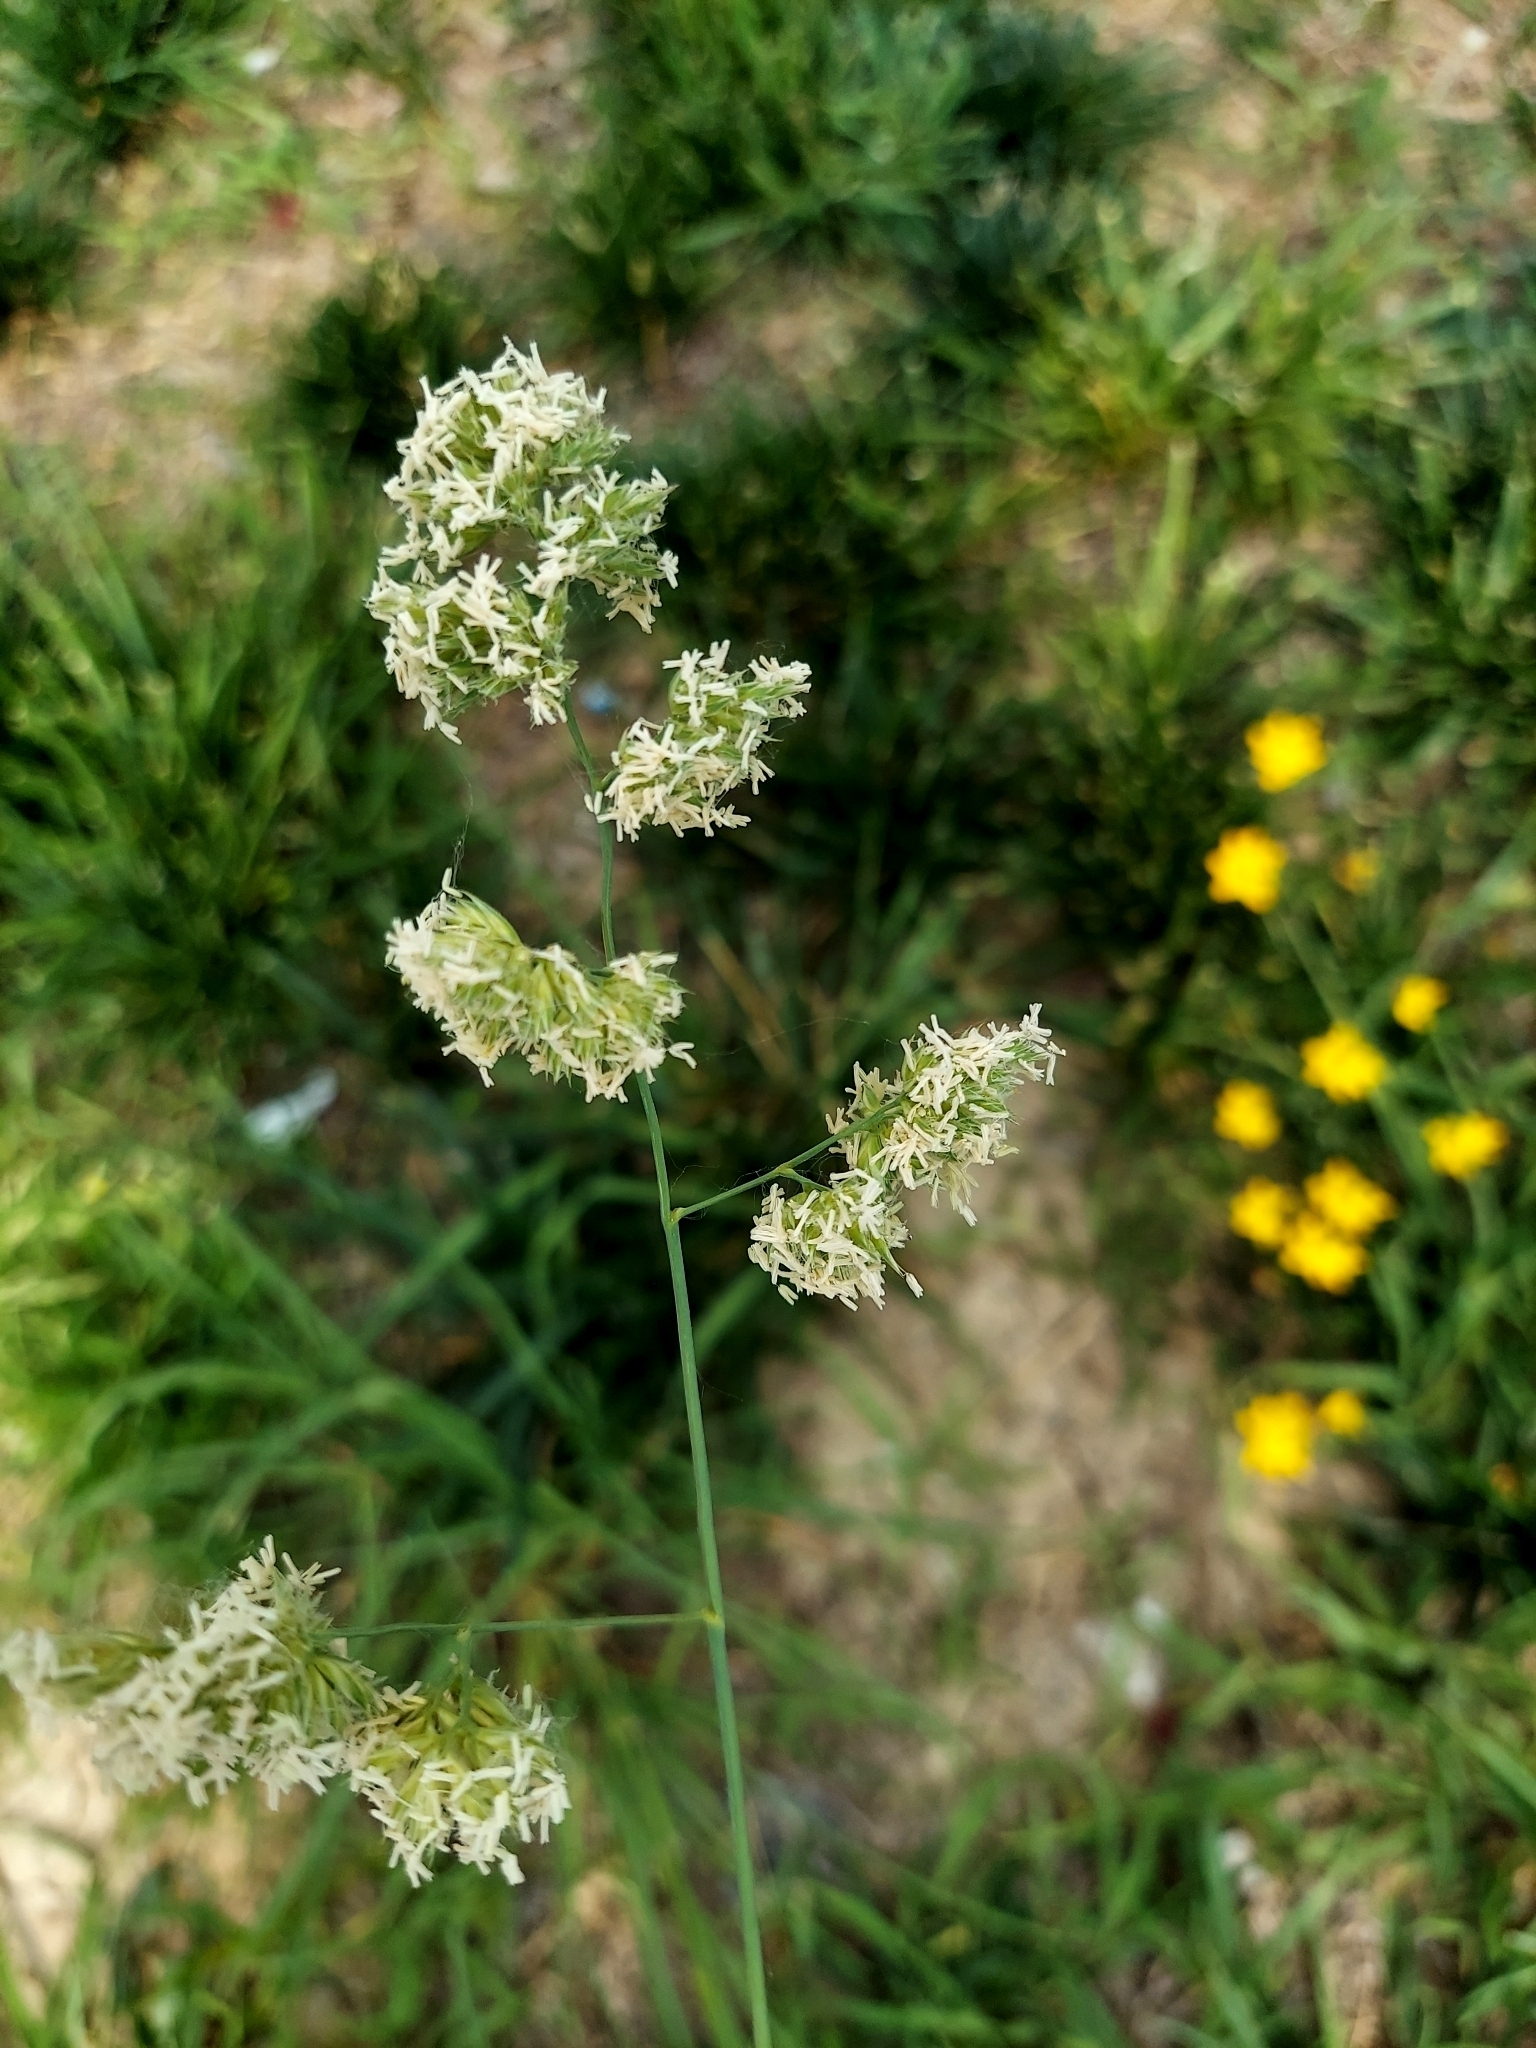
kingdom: Plantae
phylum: Tracheophyta
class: Liliopsida
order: Poales
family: Poaceae
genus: Dactylis
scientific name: Dactylis glomerata
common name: Orchardgrass
